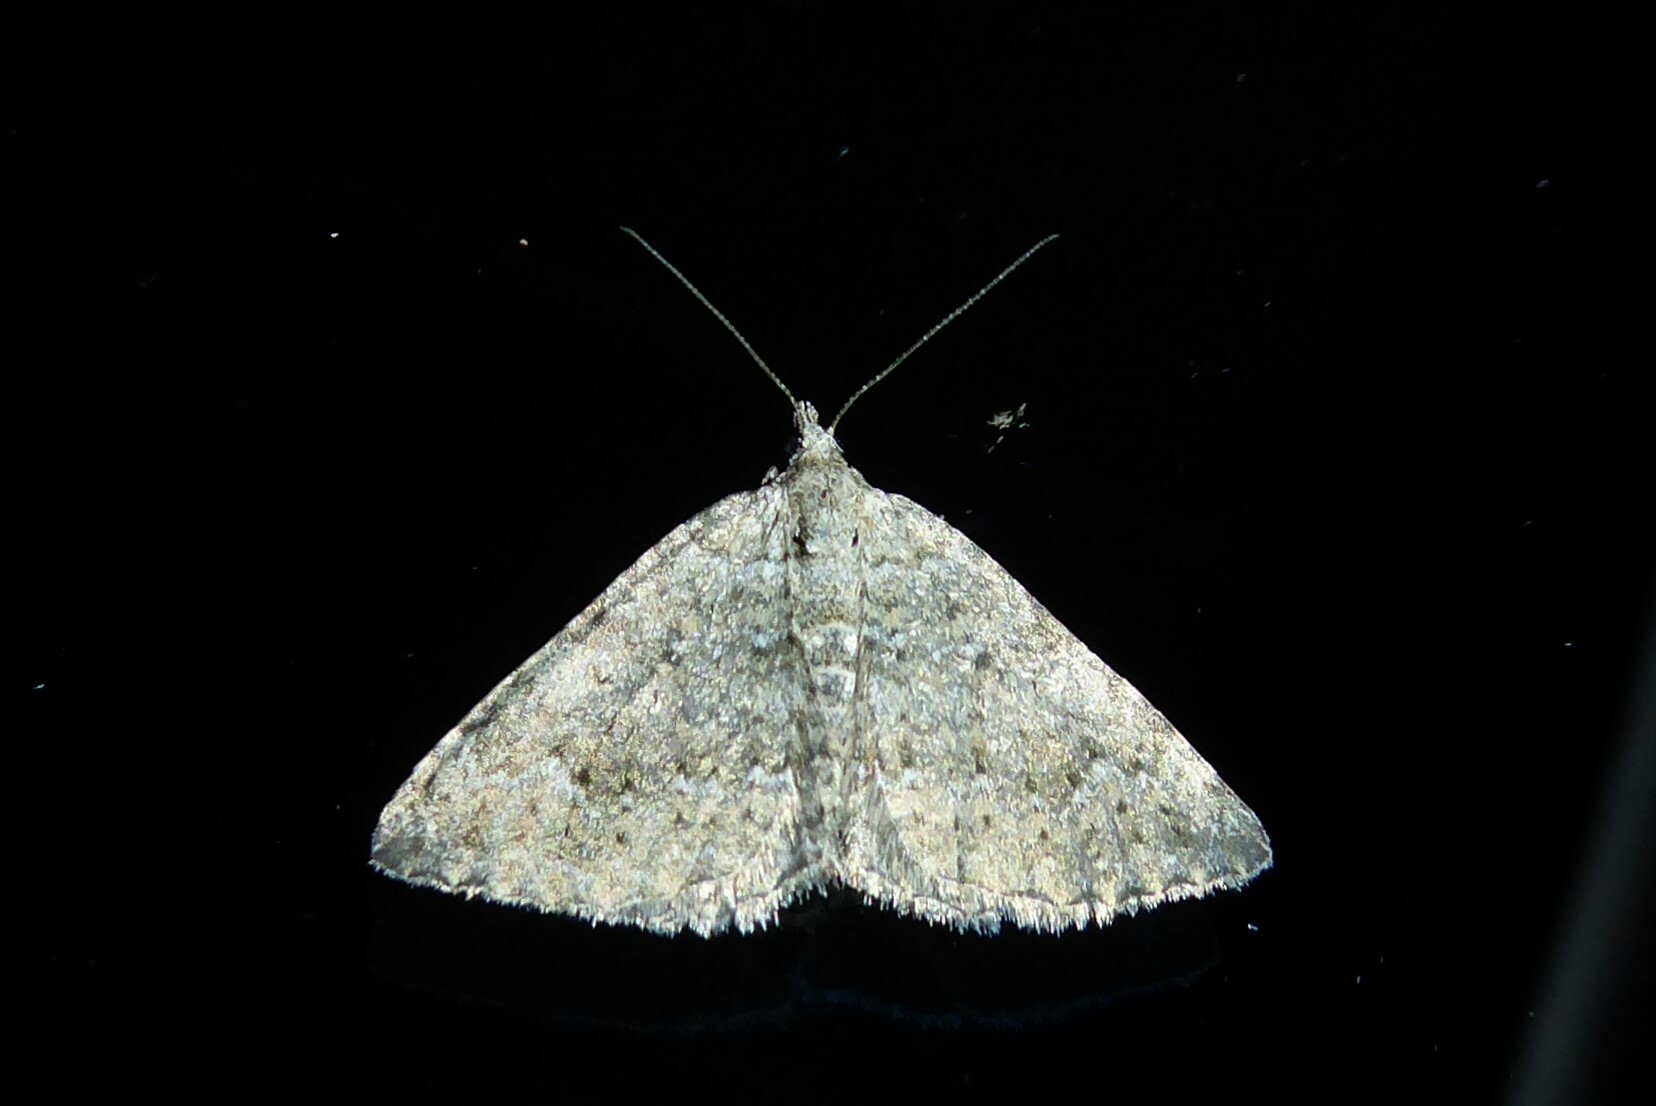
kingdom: Animalia
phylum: Arthropoda
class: Insecta
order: Lepidoptera
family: Geometridae
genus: Helastia
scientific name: Helastia corcularia
